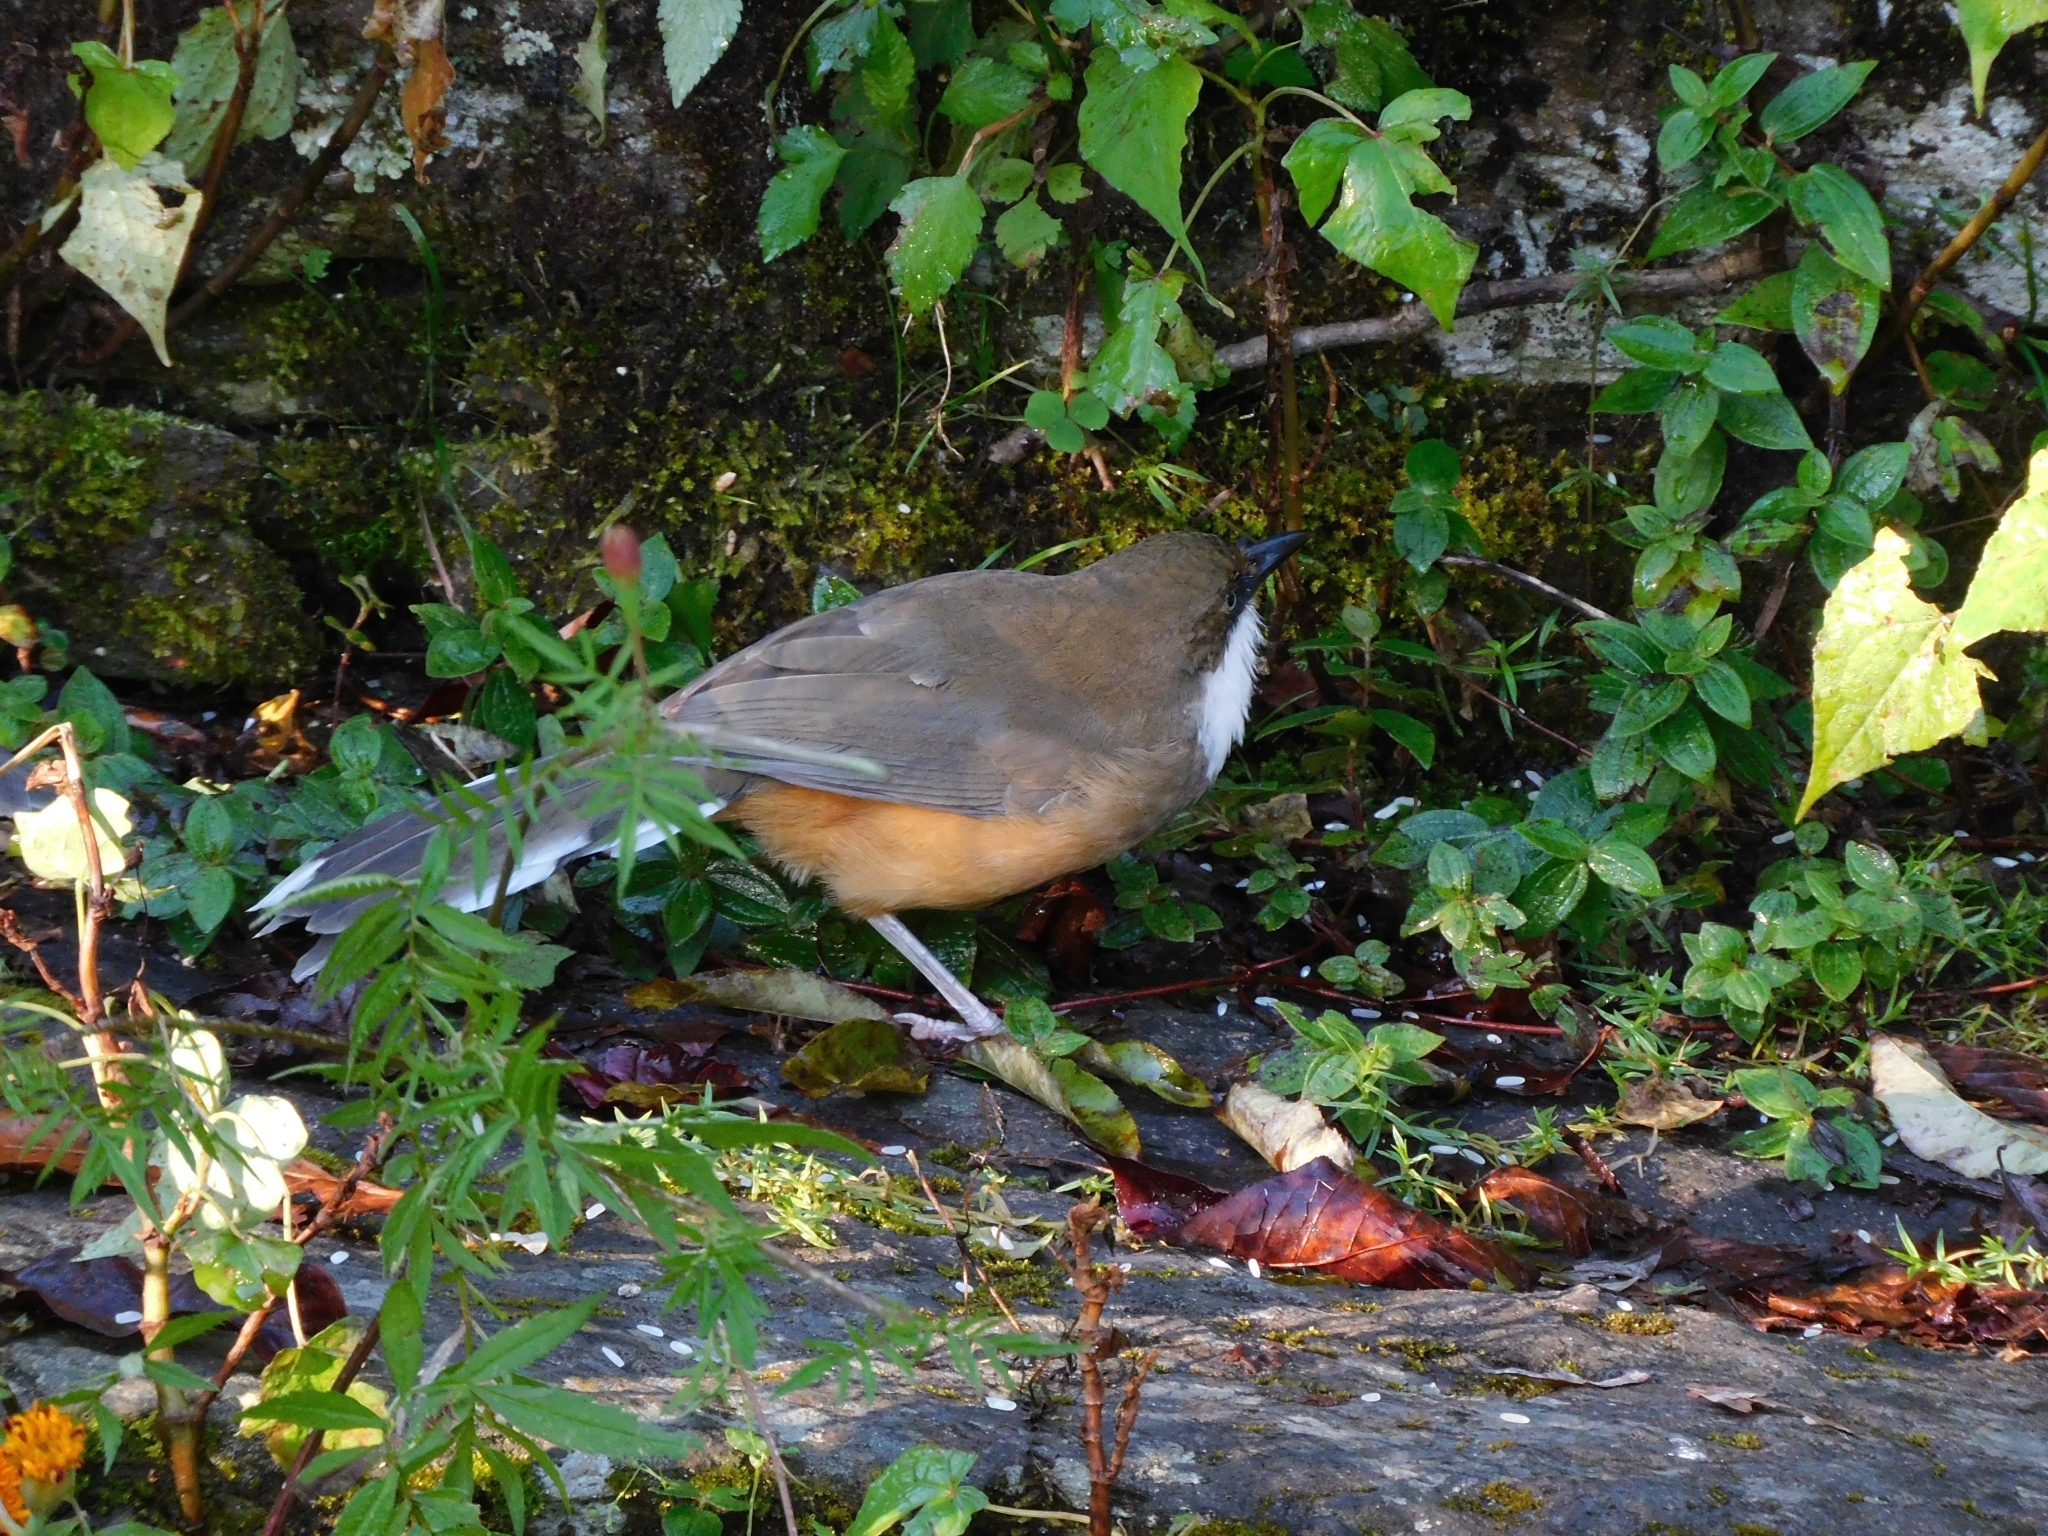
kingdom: Animalia
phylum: Chordata
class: Aves
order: Passeriformes
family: Leiothrichidae
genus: Garrulax
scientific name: Garrulax albogularis
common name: White-throated laughingthrush
